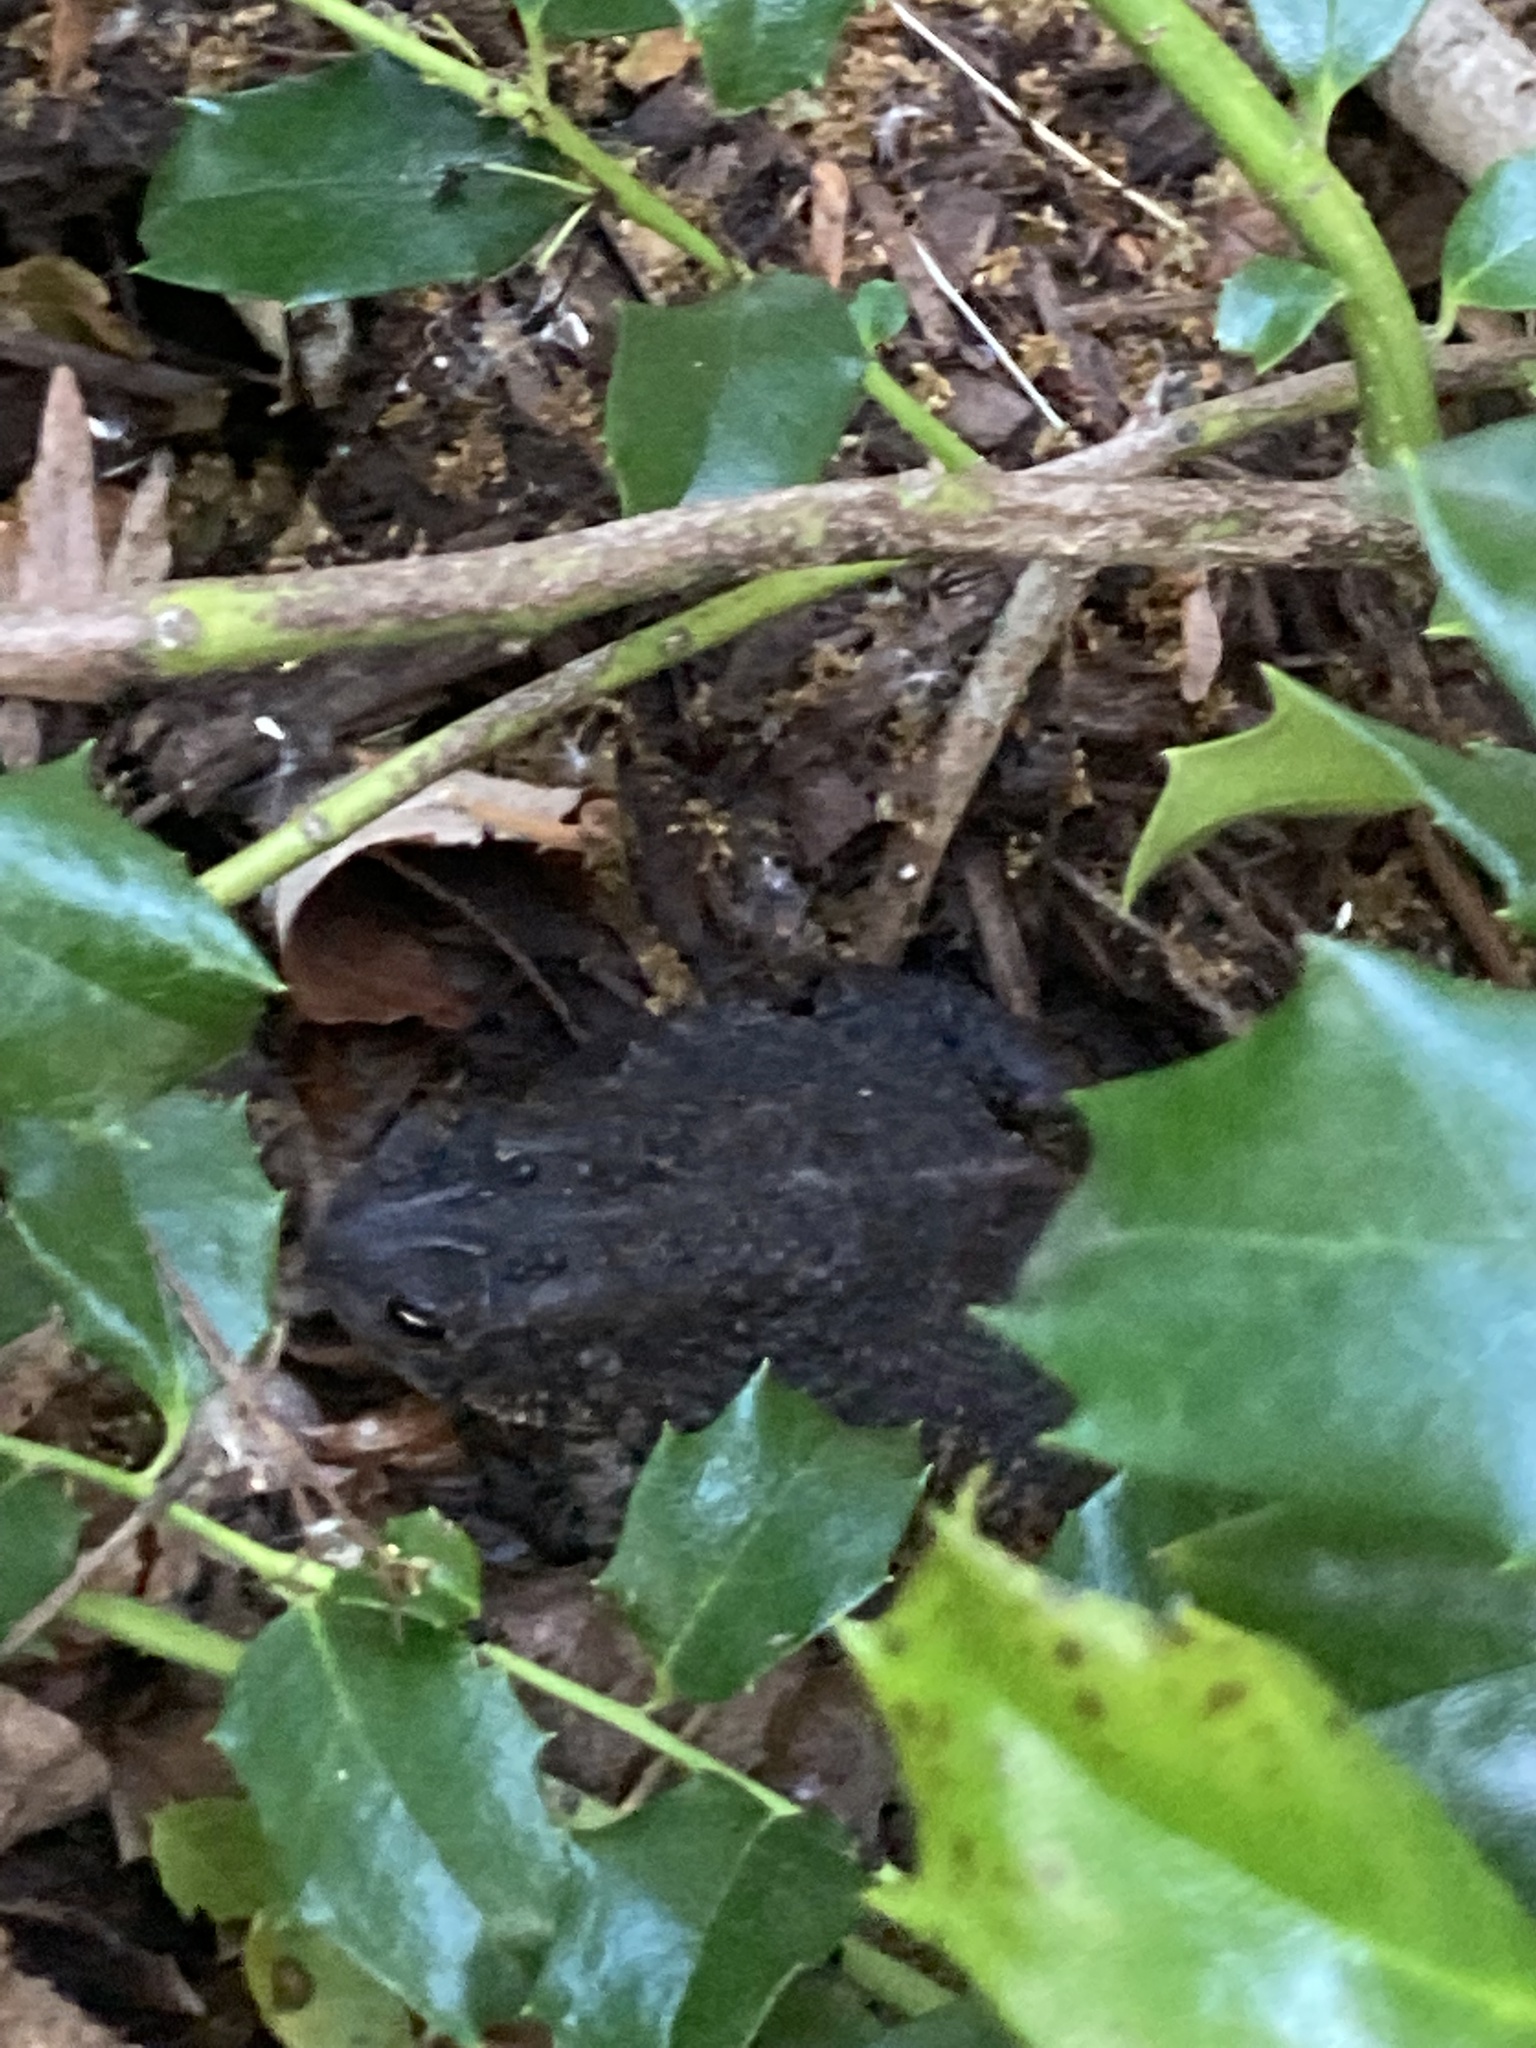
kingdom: Animalia
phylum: Chordata
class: Amphibia
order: Anura
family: Bufonidae
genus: Anaxyrus
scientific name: Anaxyrus americanus
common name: American toad
